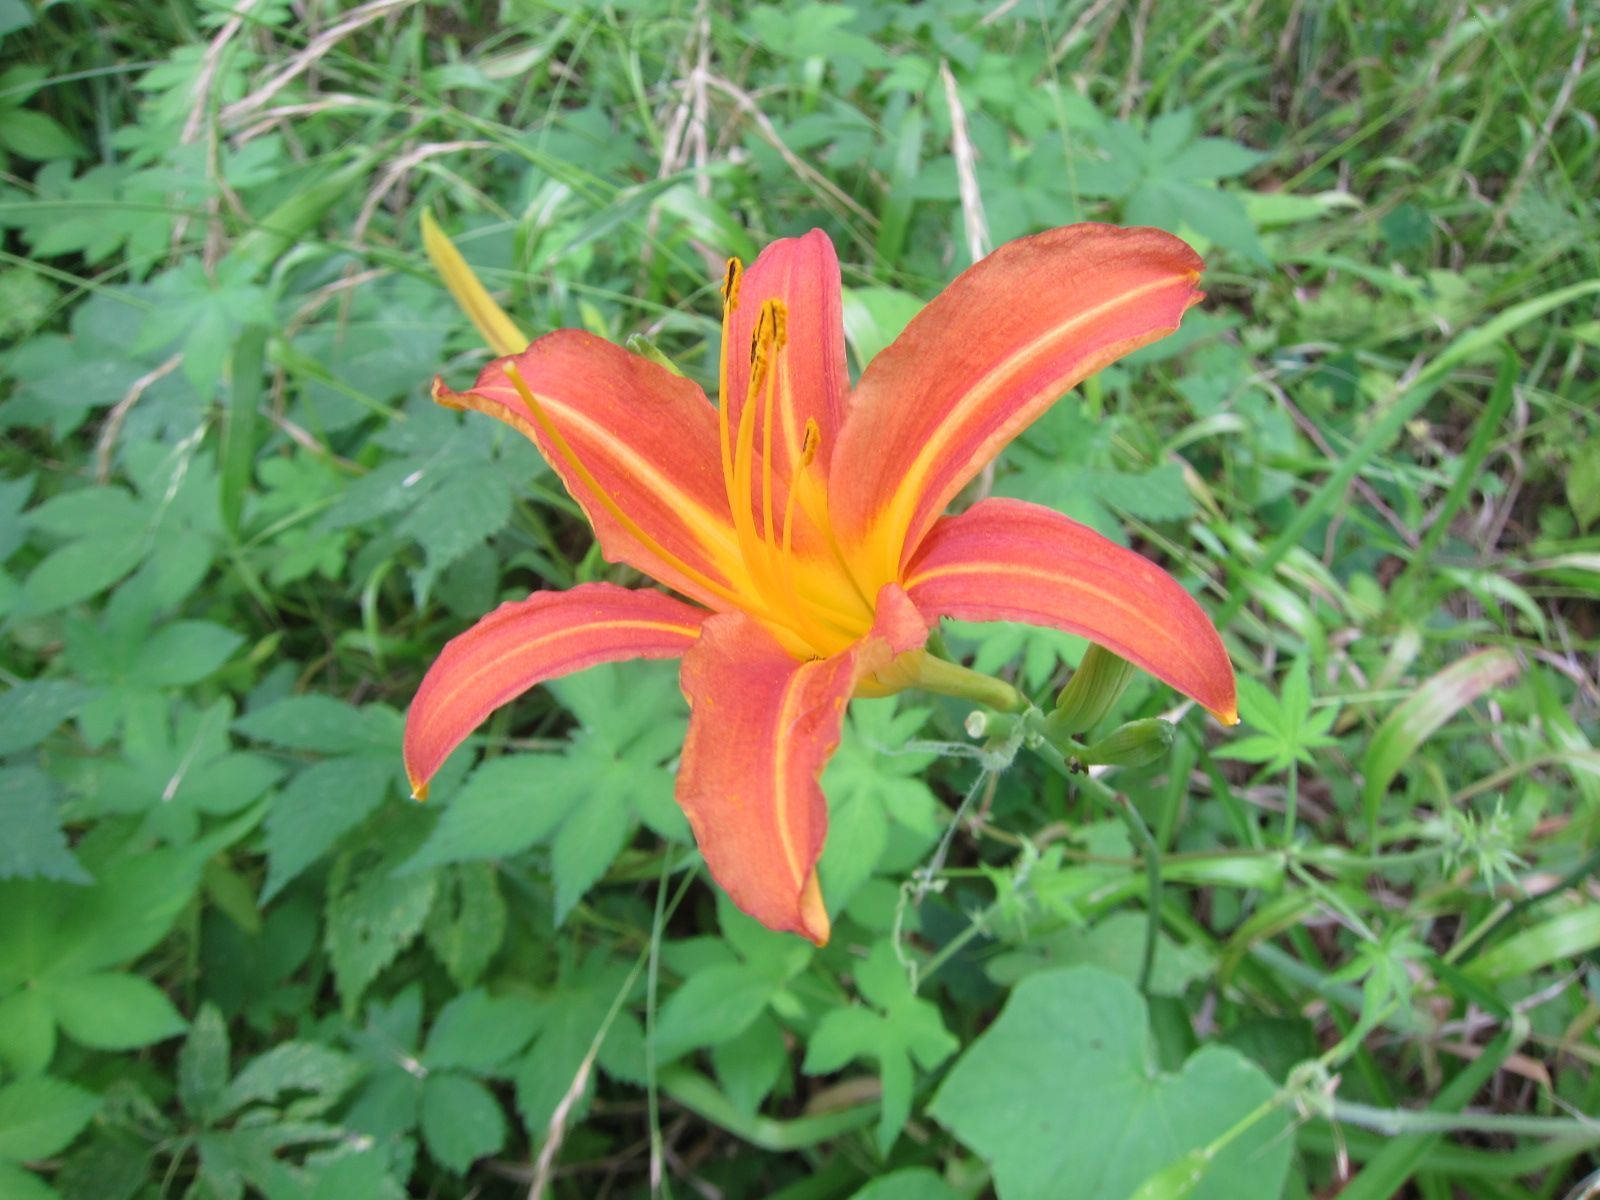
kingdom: Plantae
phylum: Tracheophyta
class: Liliopsida
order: Asparagales
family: Asphodelaceae
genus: Hemerocallis
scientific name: Hemerocallis fulva
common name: Orange day-lily
